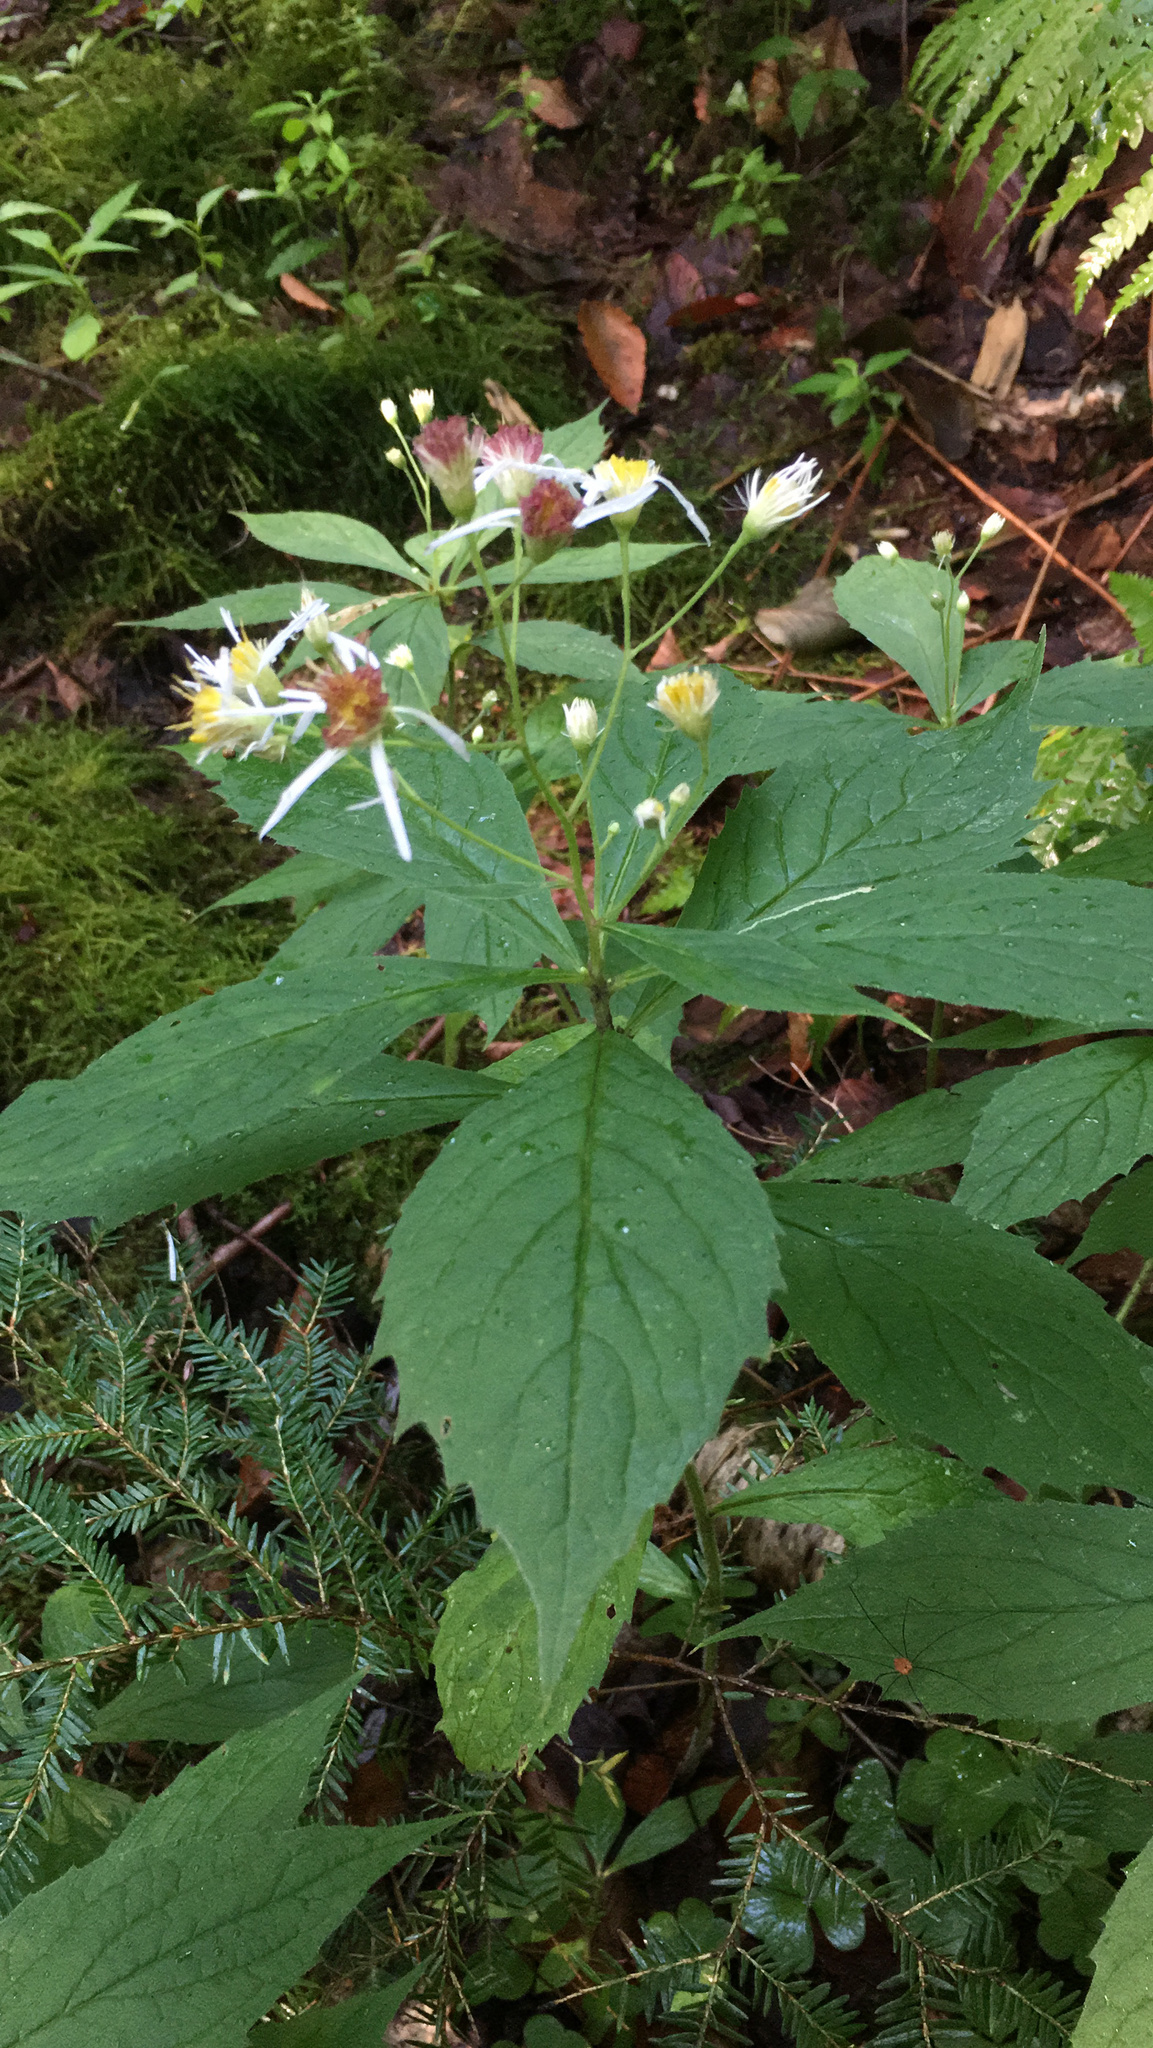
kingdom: Plantae
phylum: Tracheophyta
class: Magnoliopsida
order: Asterales
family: Asteraceae
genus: Oclemena
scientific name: Oclemena acuminata
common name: Mountain aster
